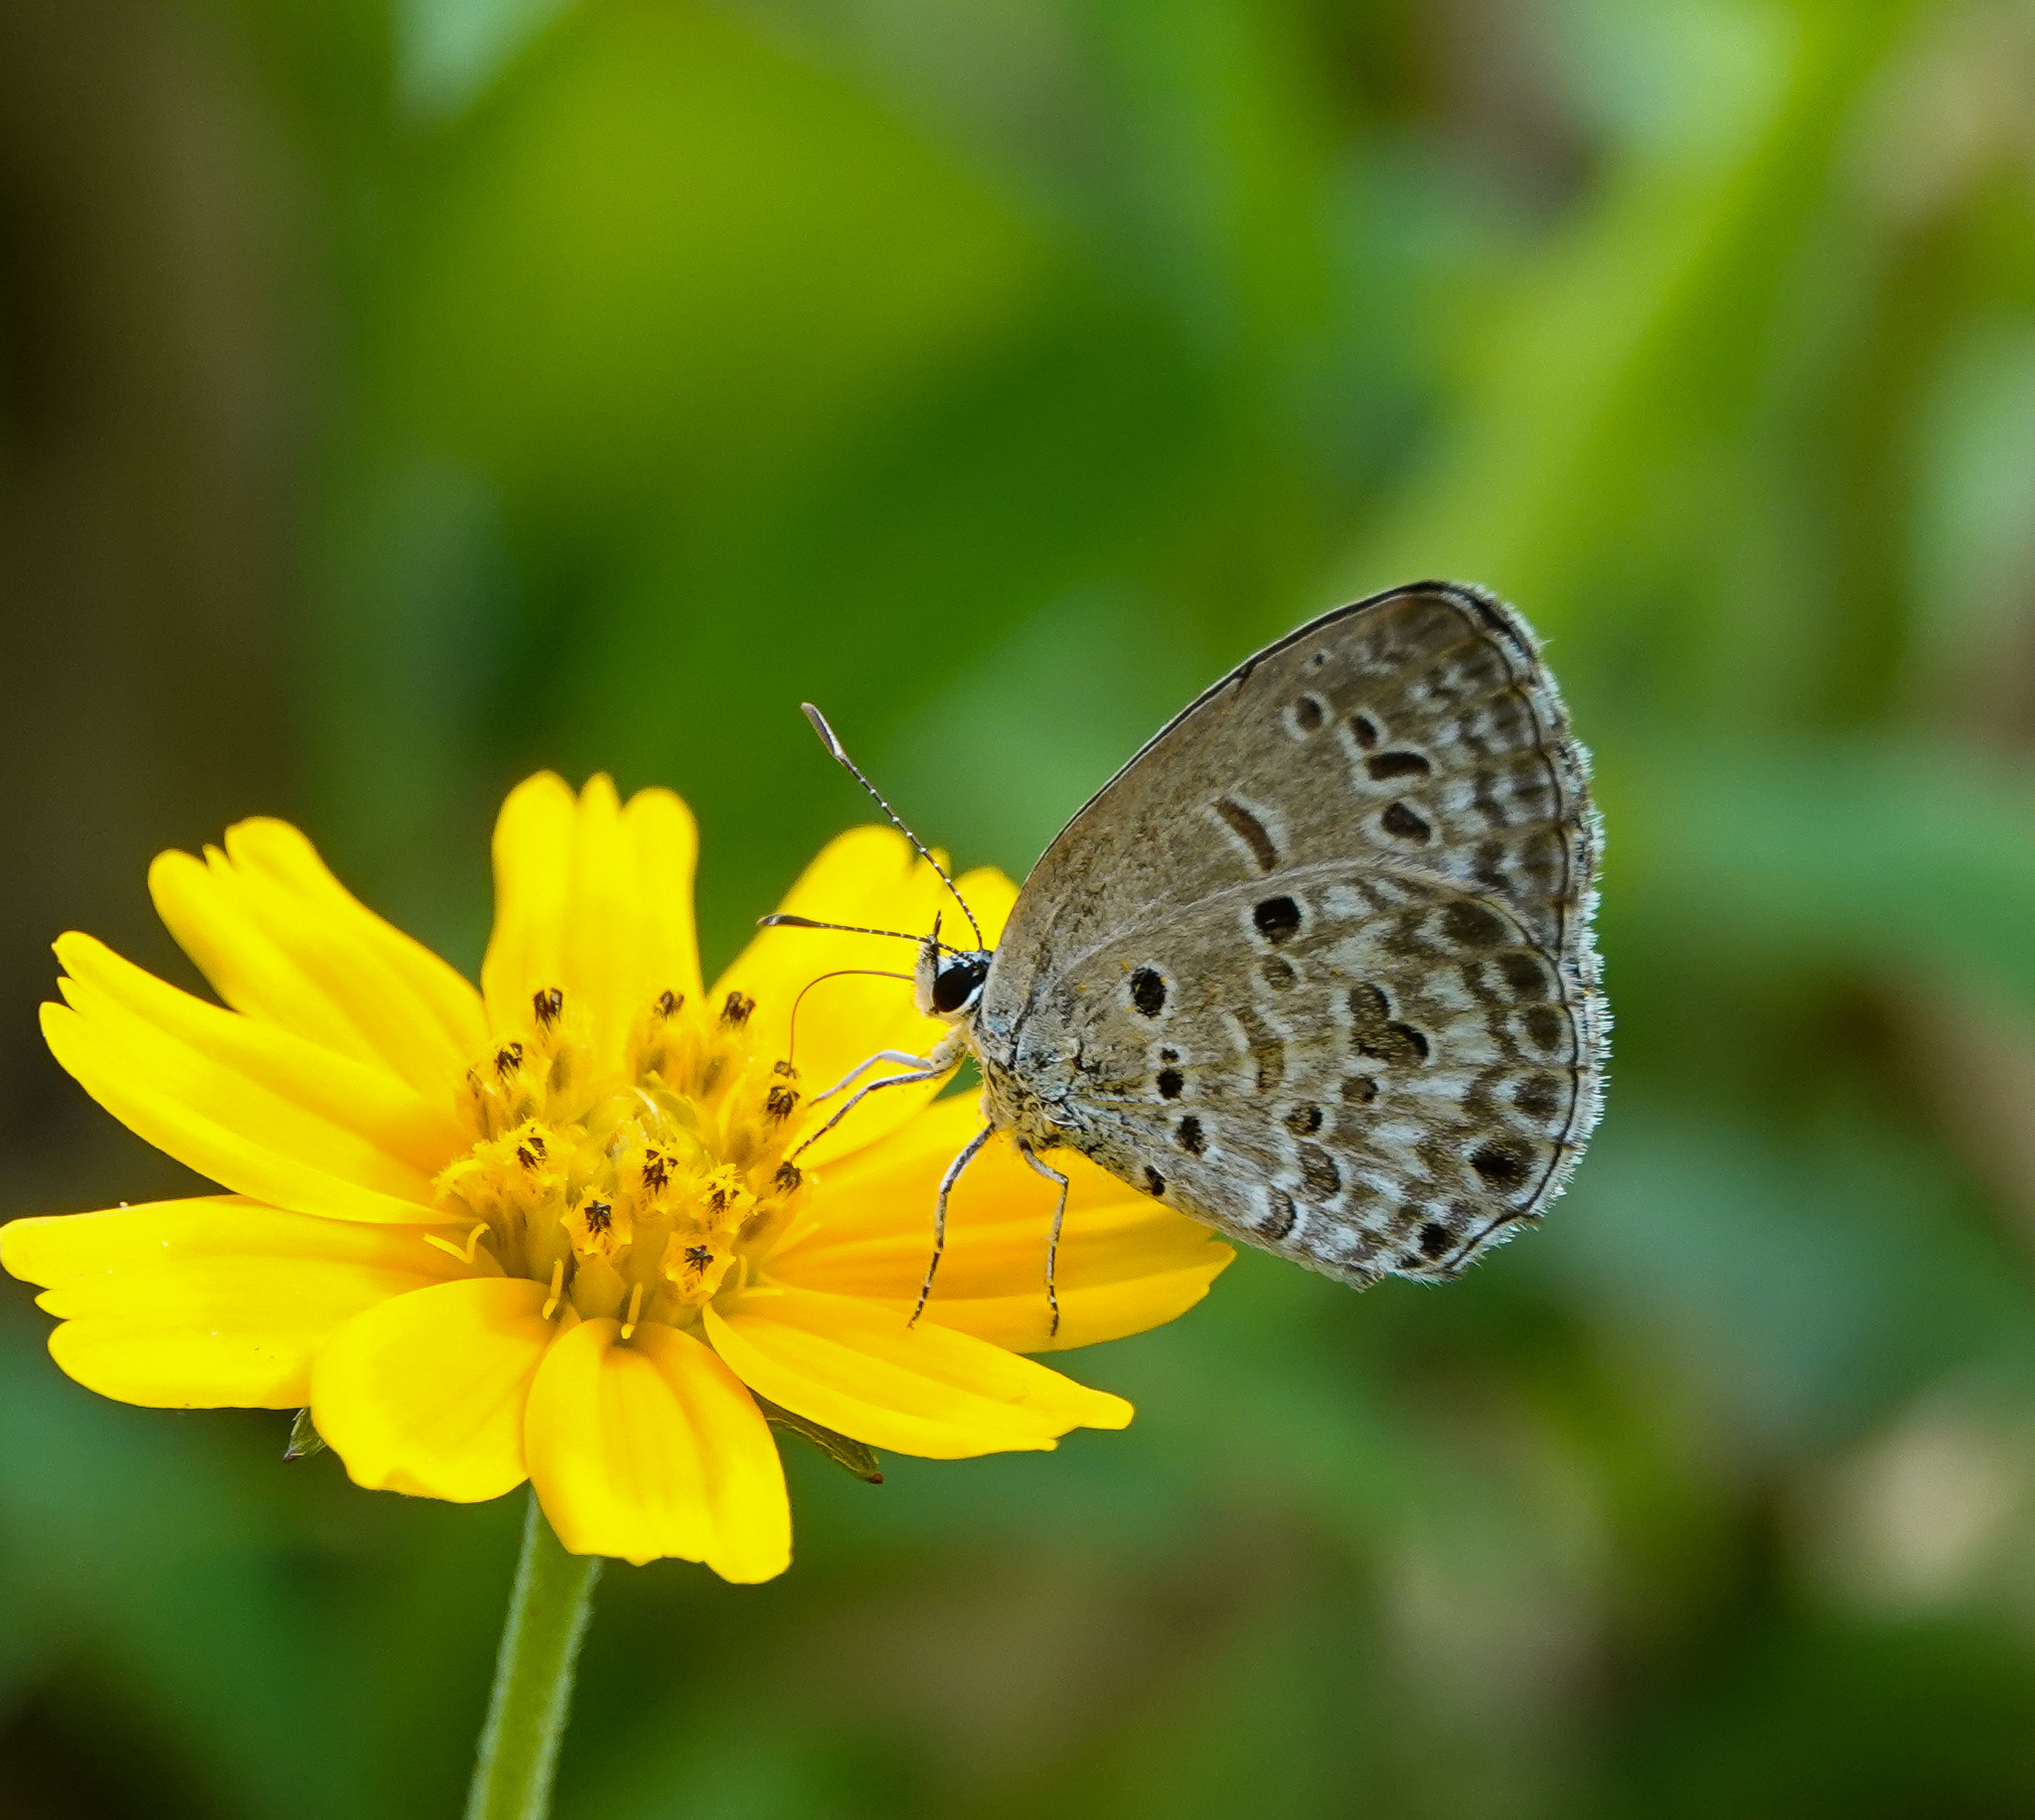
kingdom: Animalia
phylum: Arthropoda
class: Insecta
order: Lepidoptera
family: Lycaenidae
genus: Chilades
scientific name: Chilades laius
